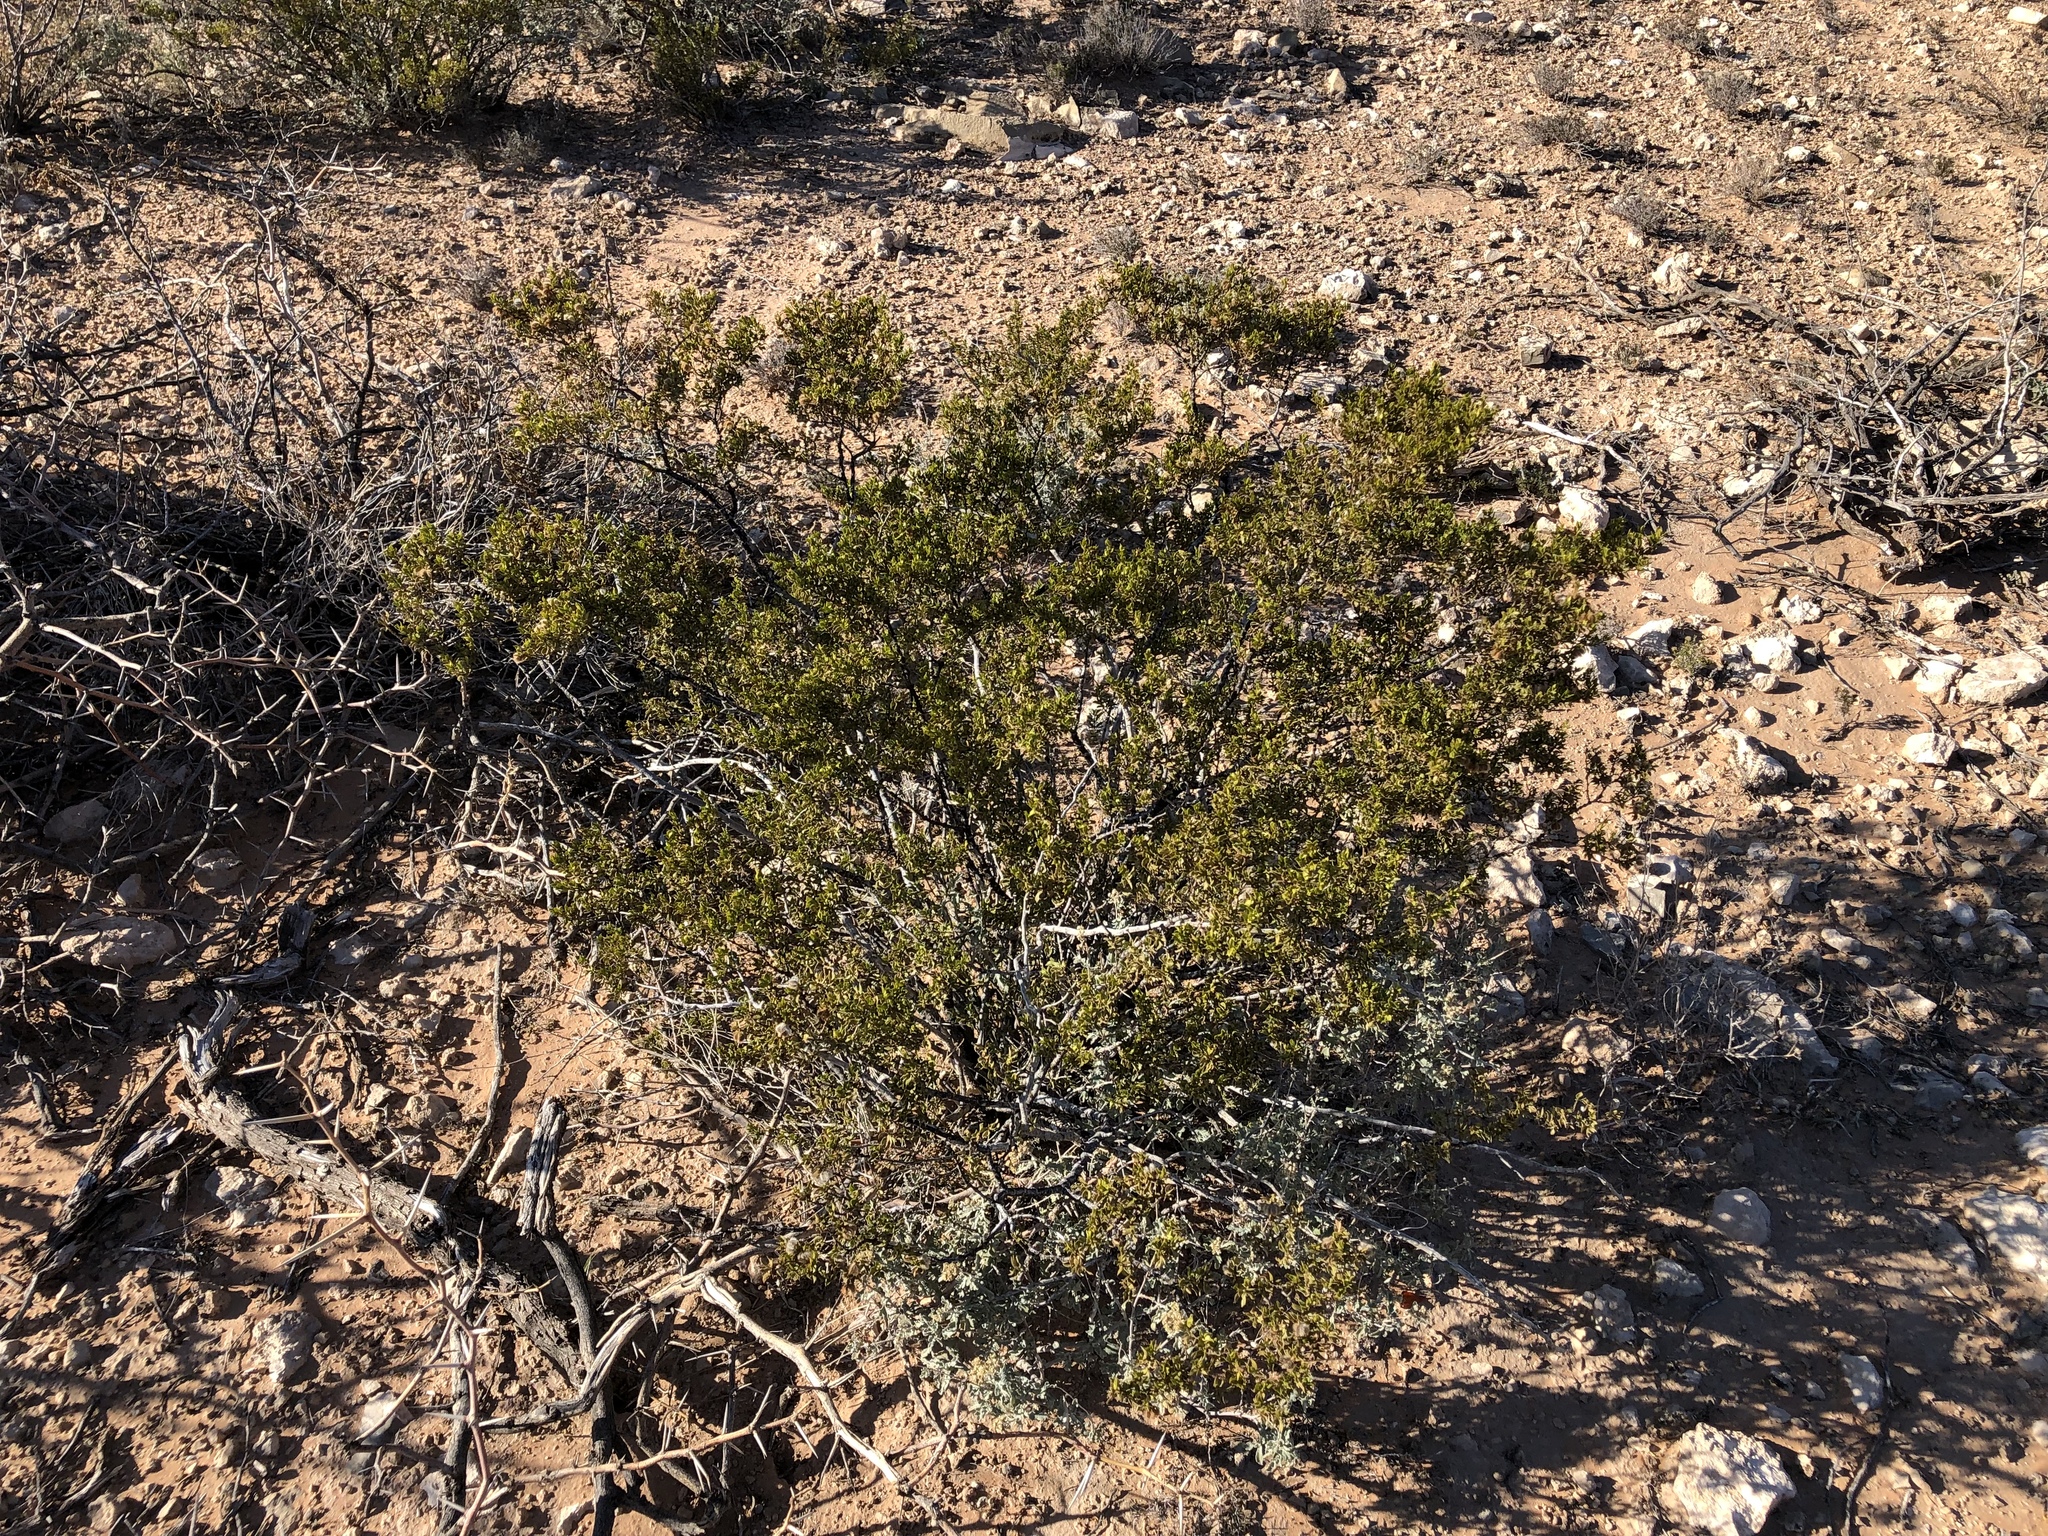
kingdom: Plantae
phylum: Tracheophyta
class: Magnoliopsida
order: Zygophyllales
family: Zygophyllaceae
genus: Larrea
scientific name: Larrea tridentata
